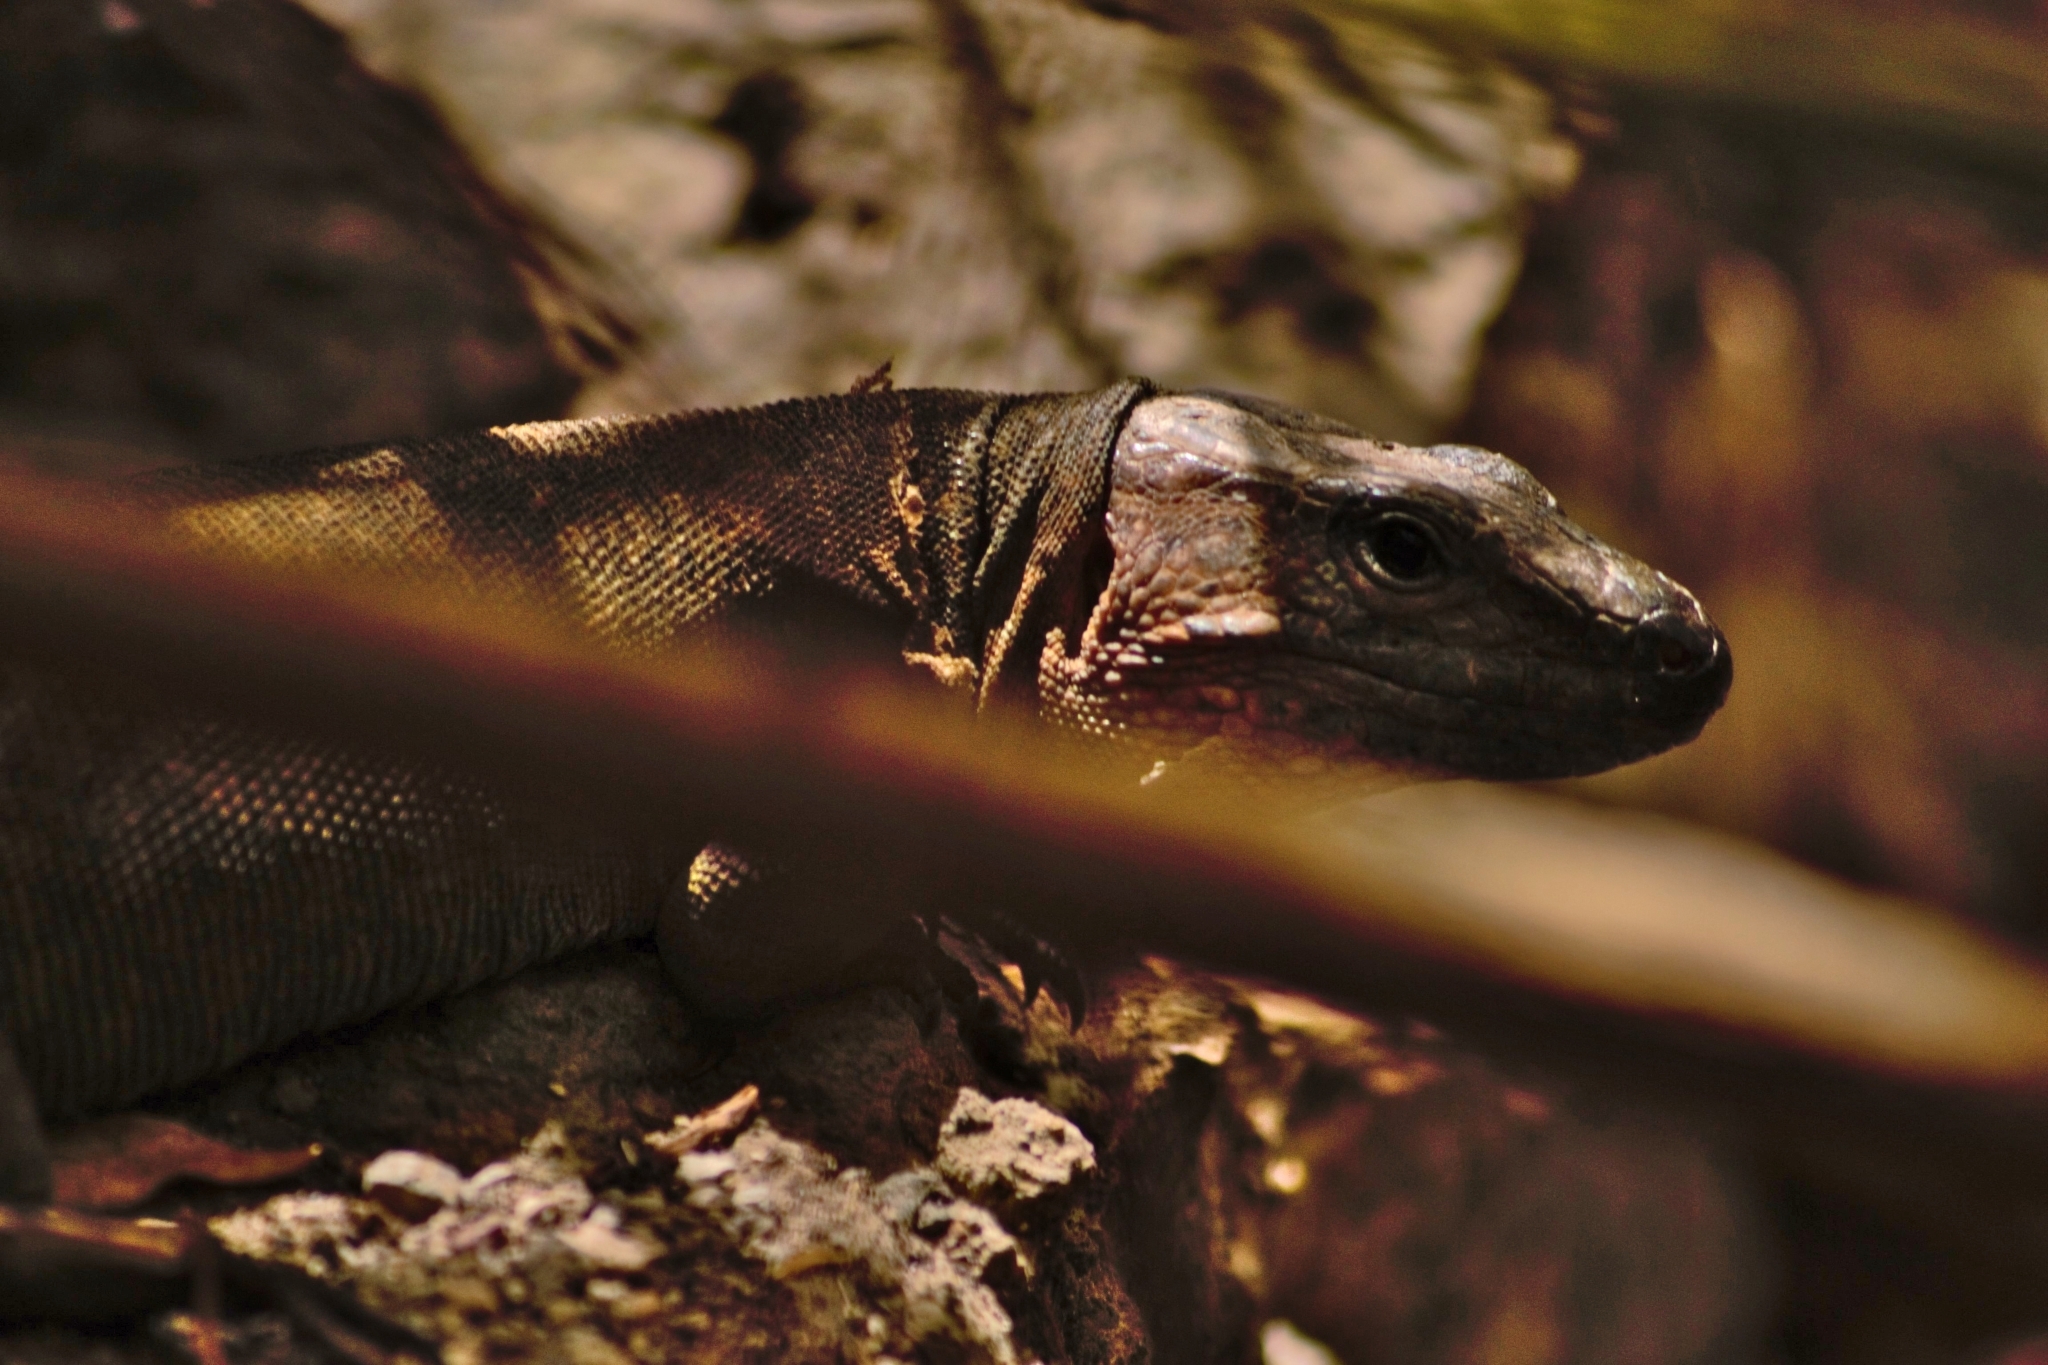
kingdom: Animalia
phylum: Chordata
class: Squamata
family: Lacertidae
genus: Gallotia
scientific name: Gallotia stehlini
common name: Gran canaria giant lizard
